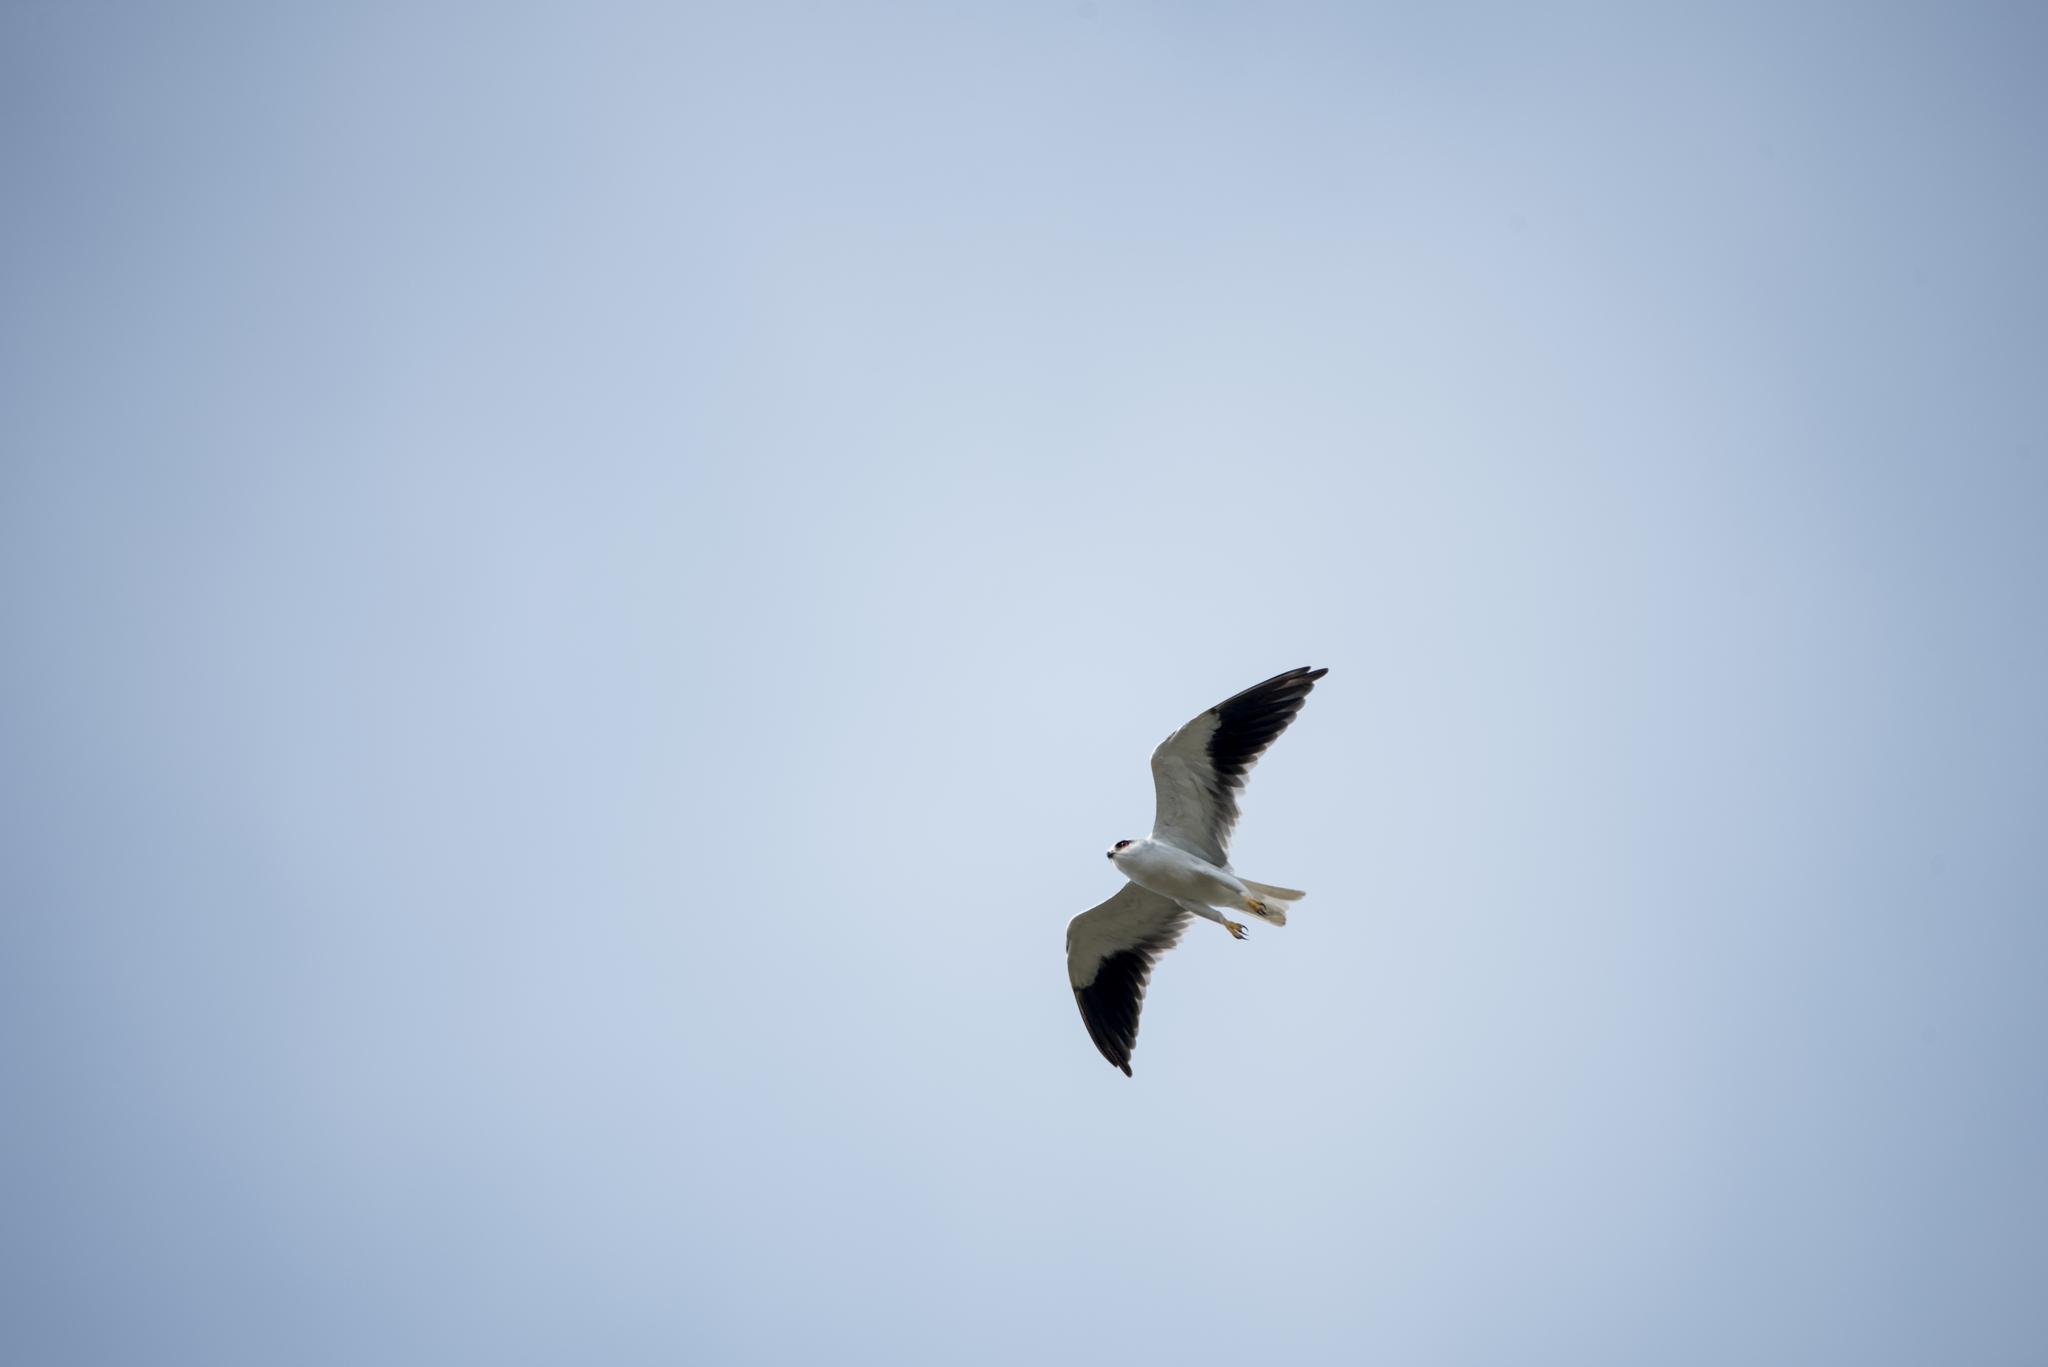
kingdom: Animalia
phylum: Chordata
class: Aves
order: Accipitriformes
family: Accipitridae
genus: Elanus
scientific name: Elanus caeruleus
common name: Black-winged kite
